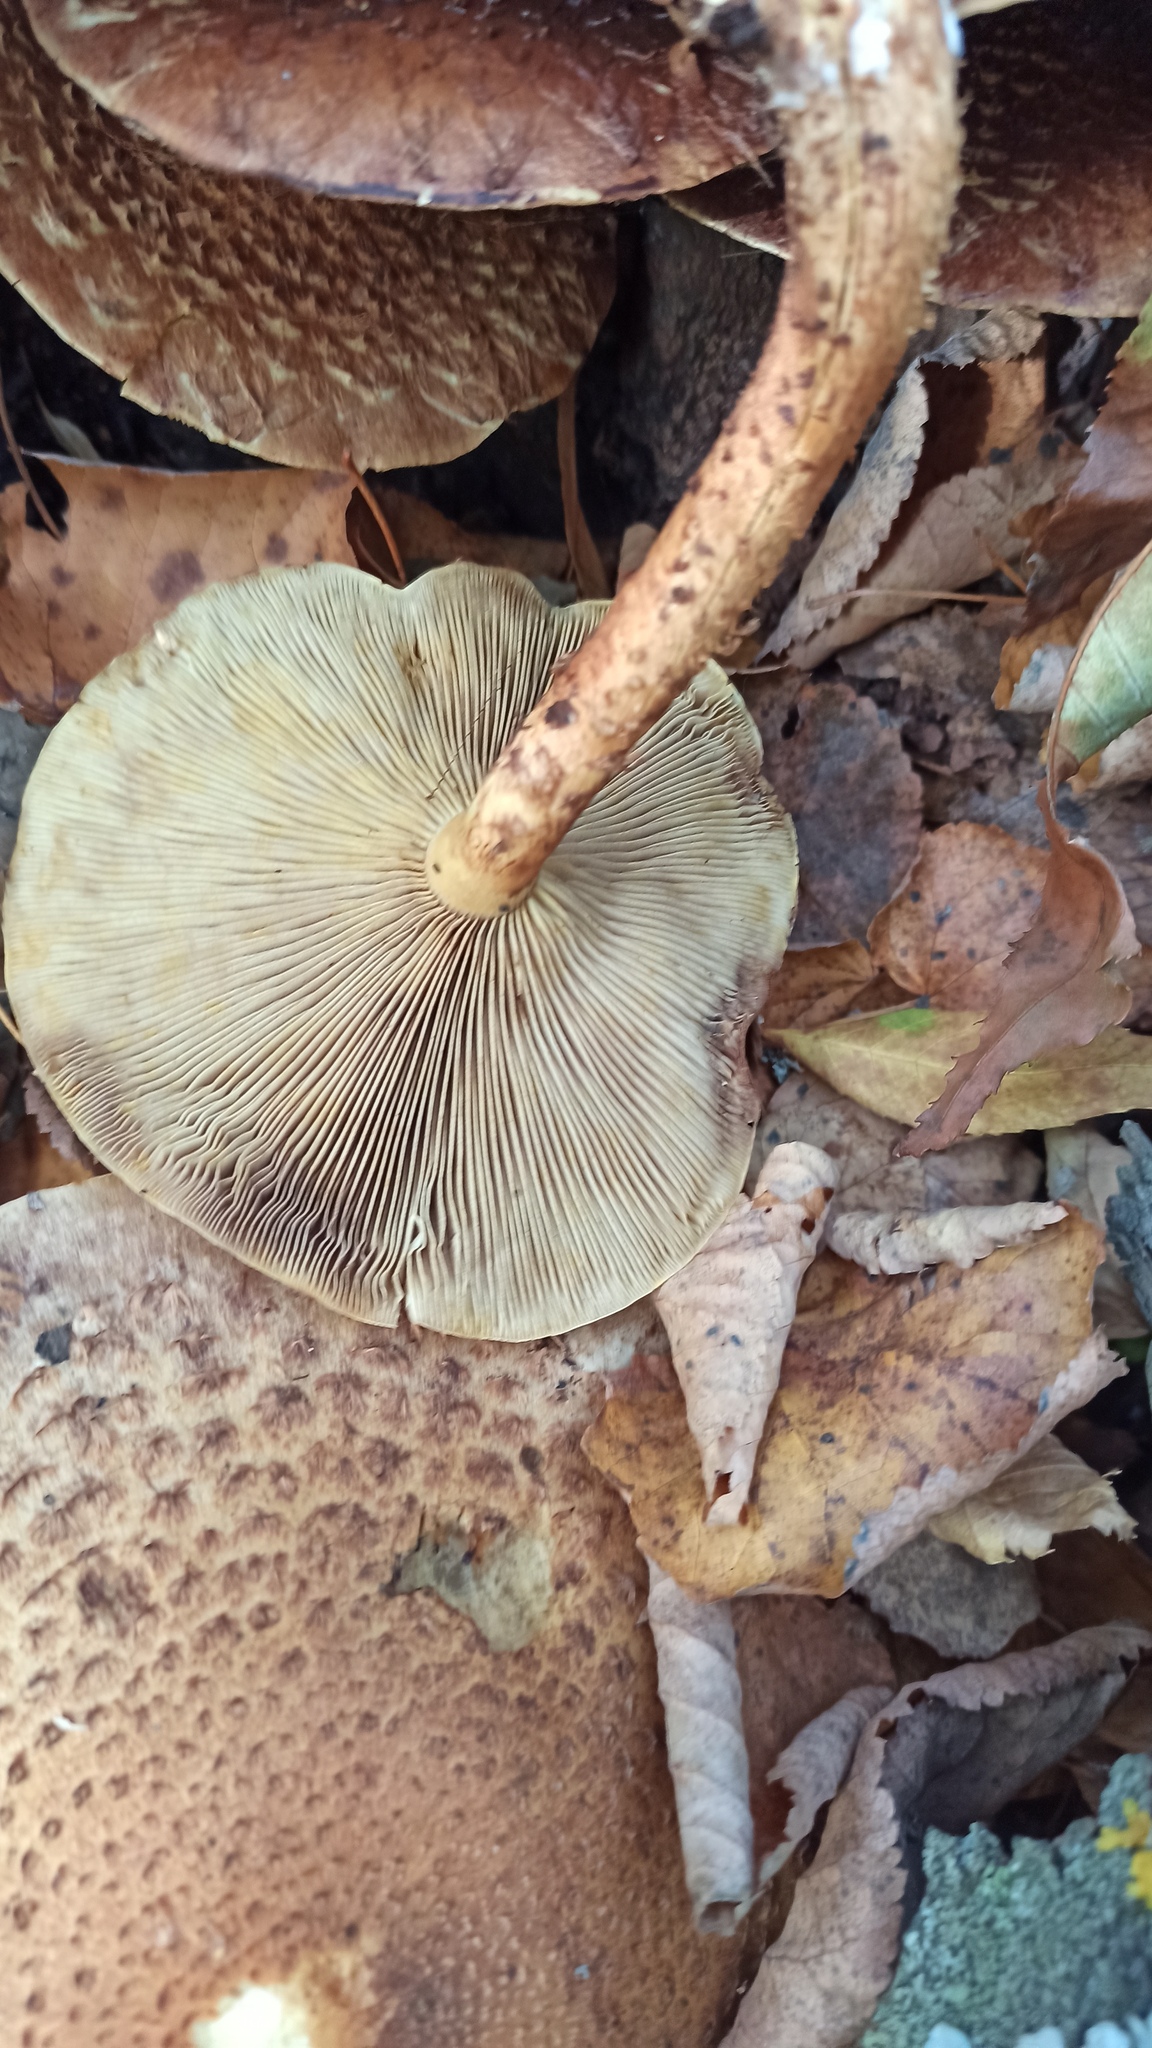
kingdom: Fungi
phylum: Basidiomycota
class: Agaricomycetes
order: Agaricales
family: Strophariaceae
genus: Pholiota
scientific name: Pholiota squarrosa
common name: Shaggy pholiota
